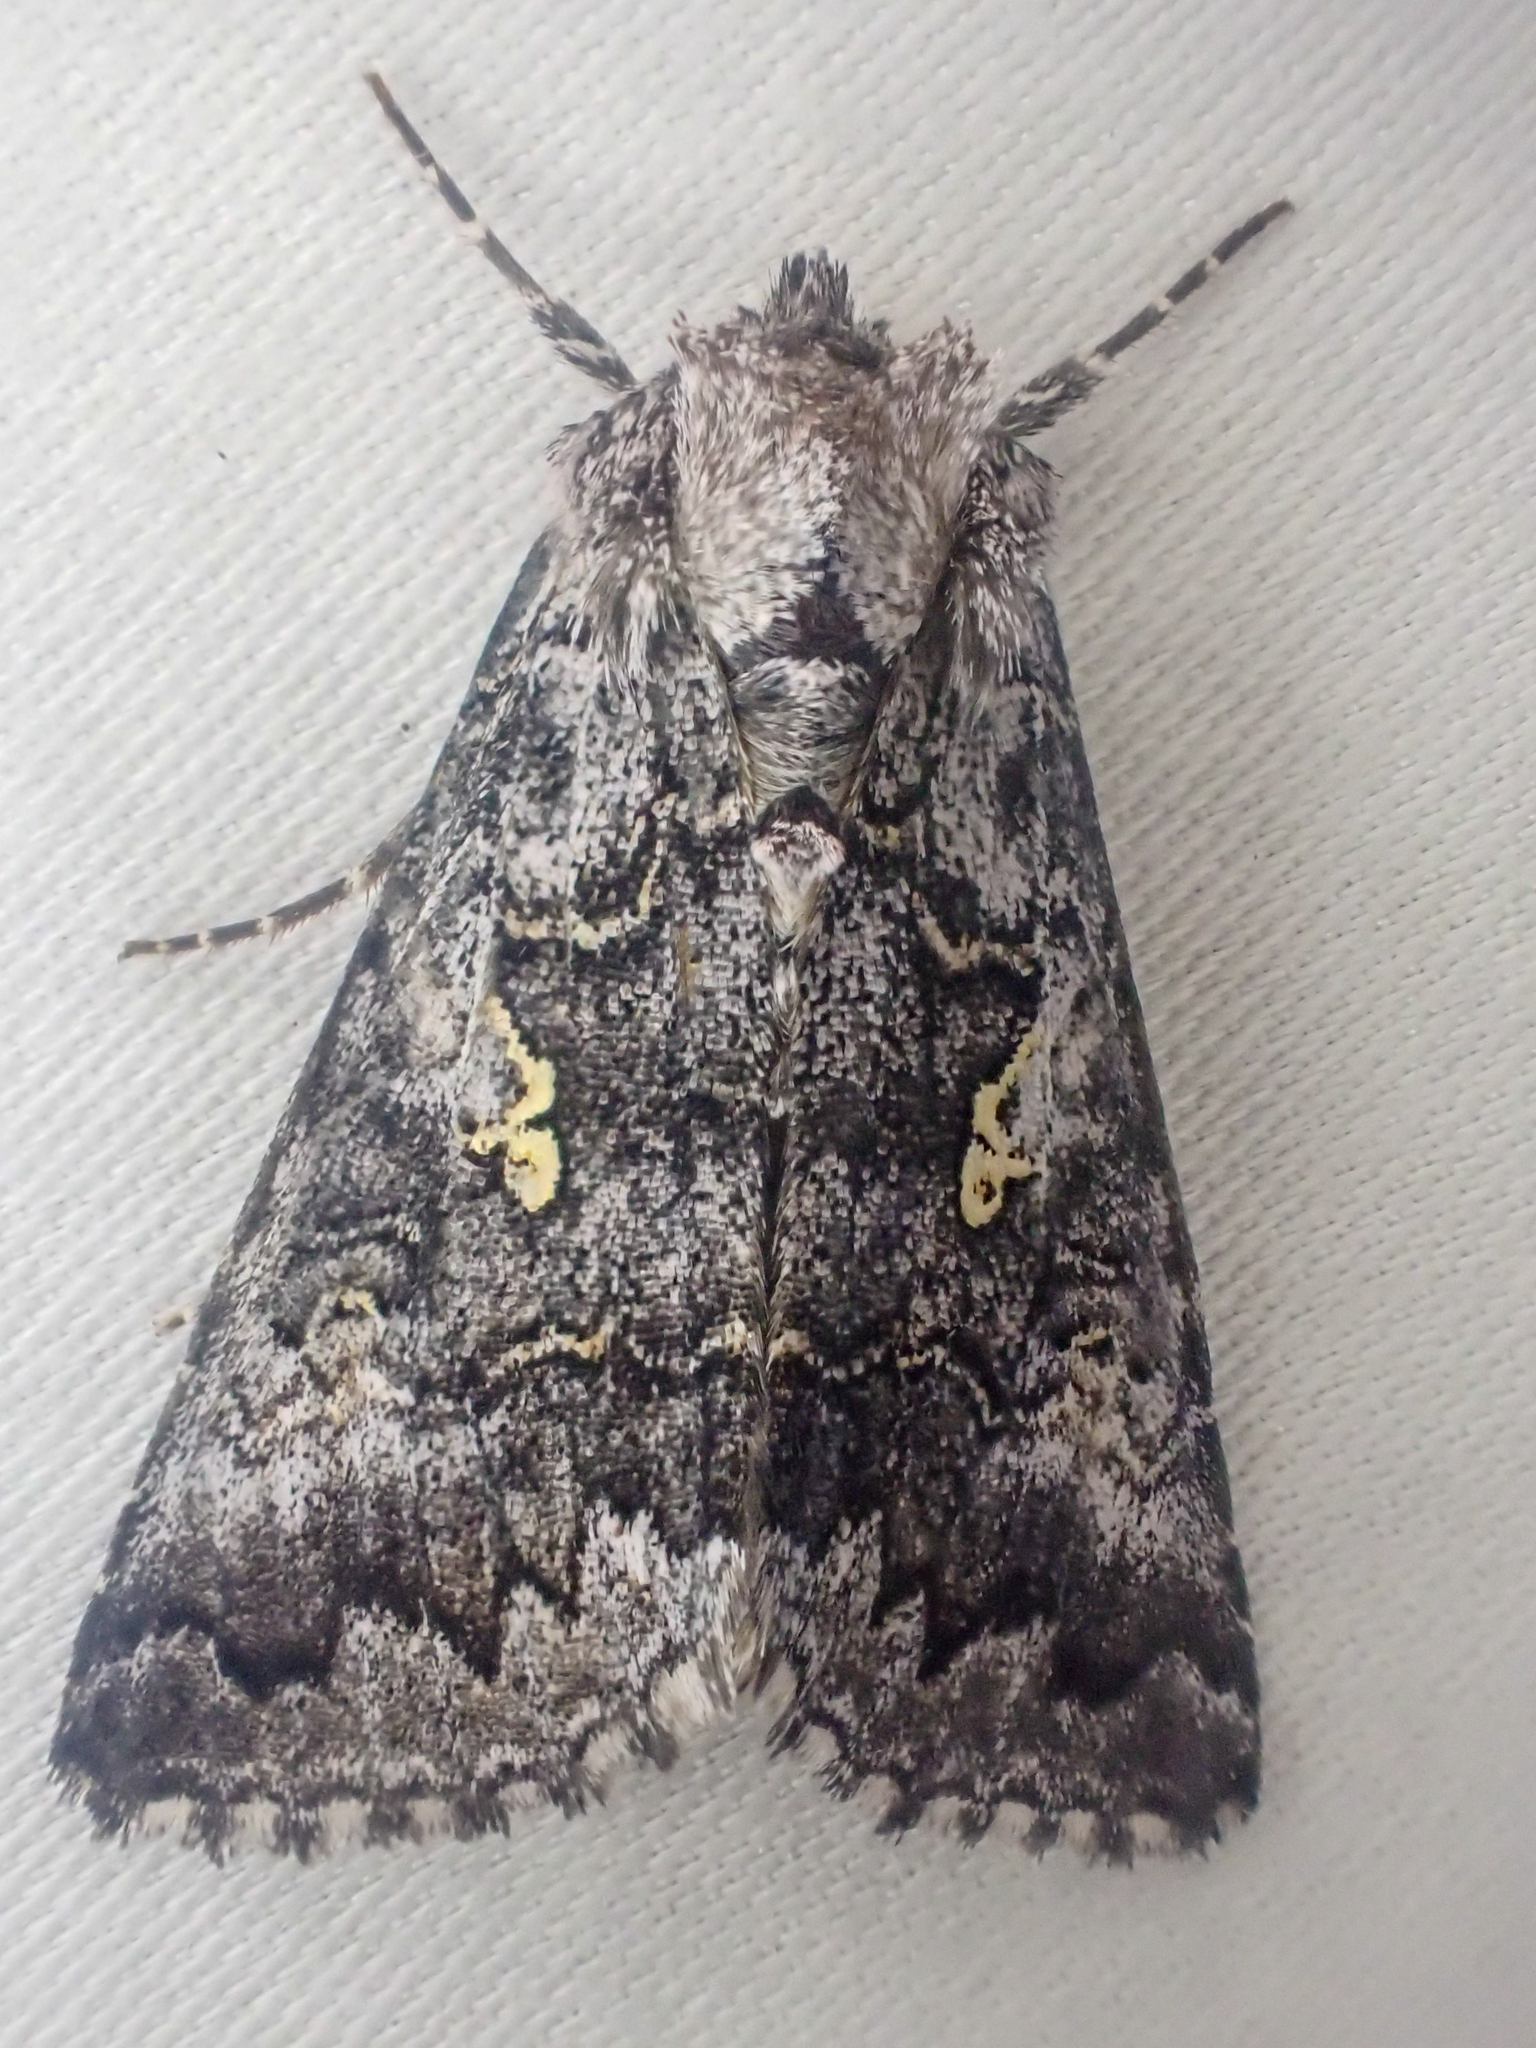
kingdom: Animalia
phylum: Arthropoda
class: Insecta
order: Lepidoptera
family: Noctuidae
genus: Syngrapha
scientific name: Syngrapha celsa
